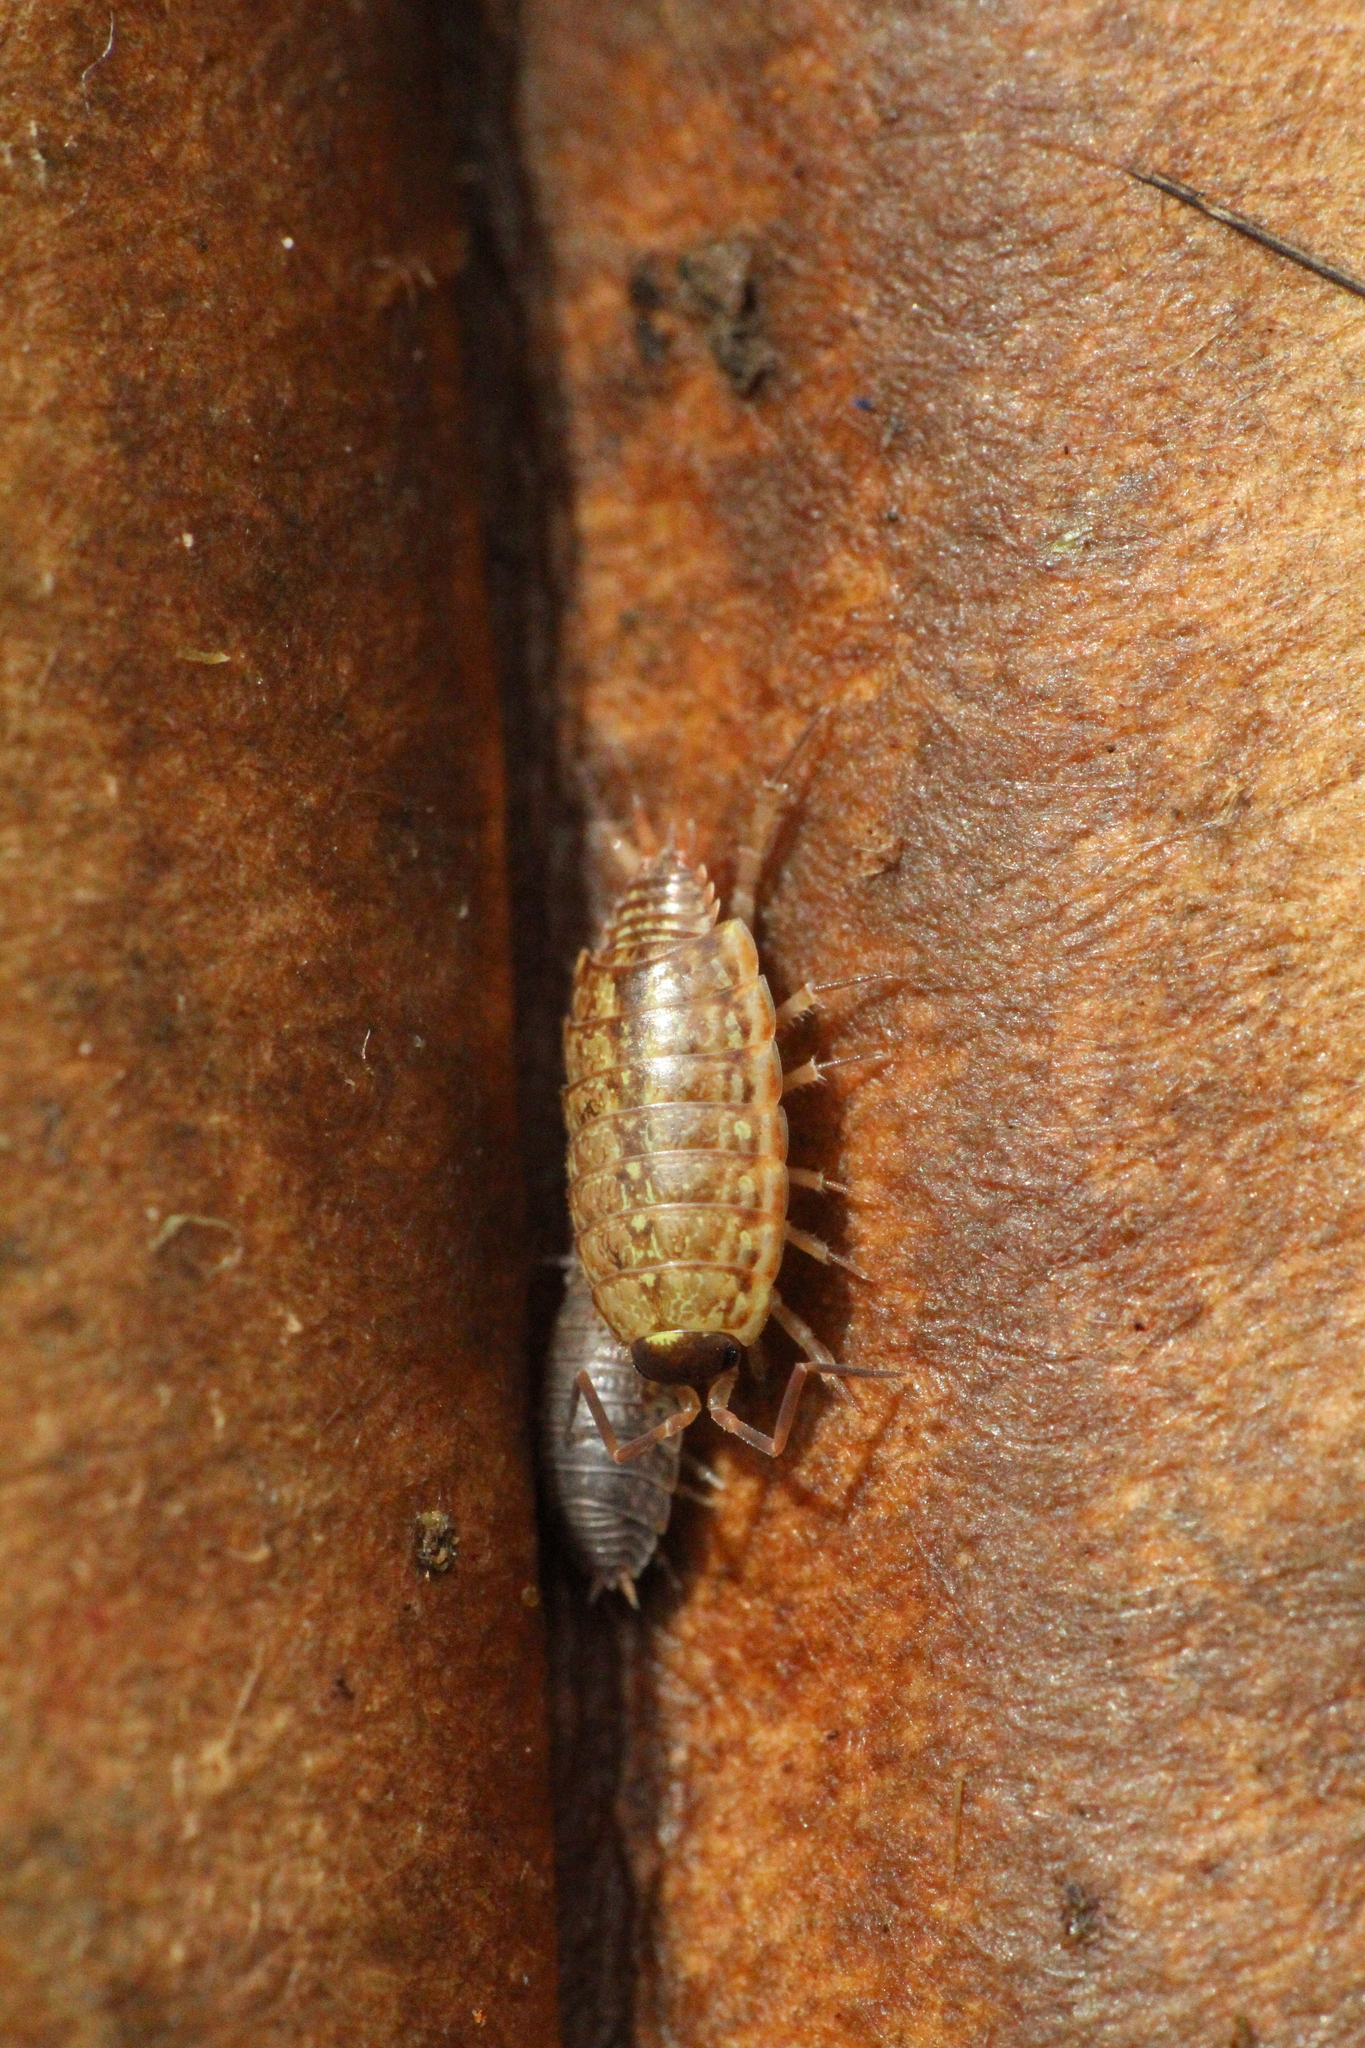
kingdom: Animalia
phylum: Arthropoda
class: Malacostraca
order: Isopoda
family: Philosciidae
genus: Philoscia
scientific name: Philoscia muscorum
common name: Common striped woodlouse
